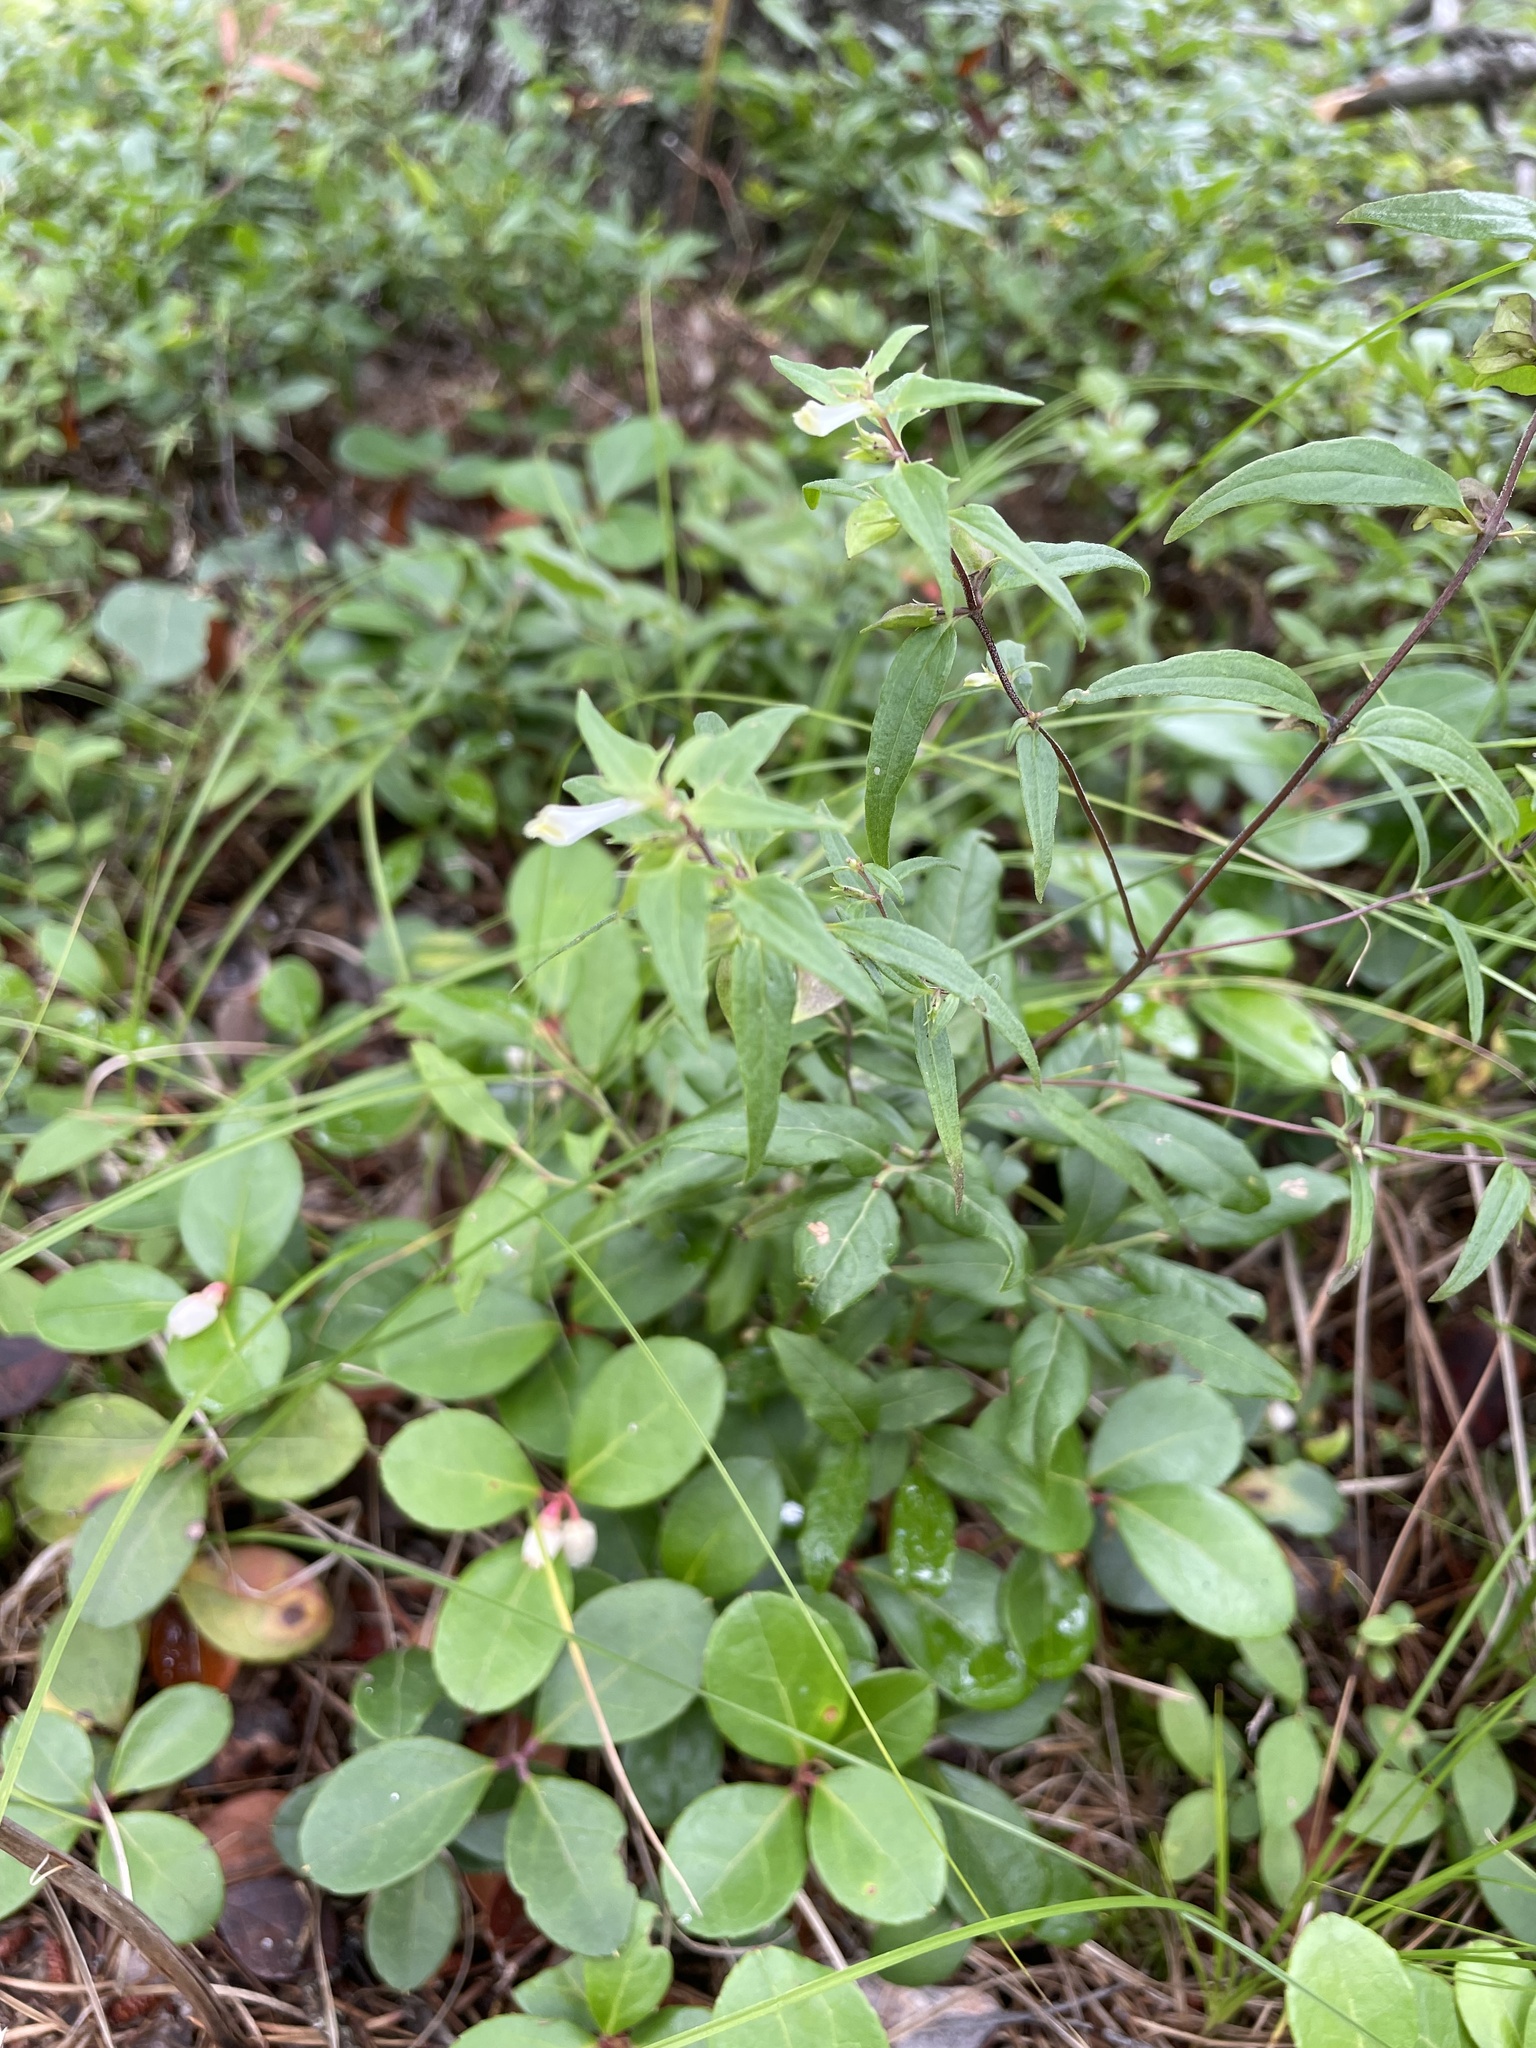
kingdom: Plantae
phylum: Tracheophyta
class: Magnoliopsida
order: Lamiales
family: Orobanchaceae
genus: Melampyrum
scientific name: Melampyrum lineare
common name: American cow-wheat
